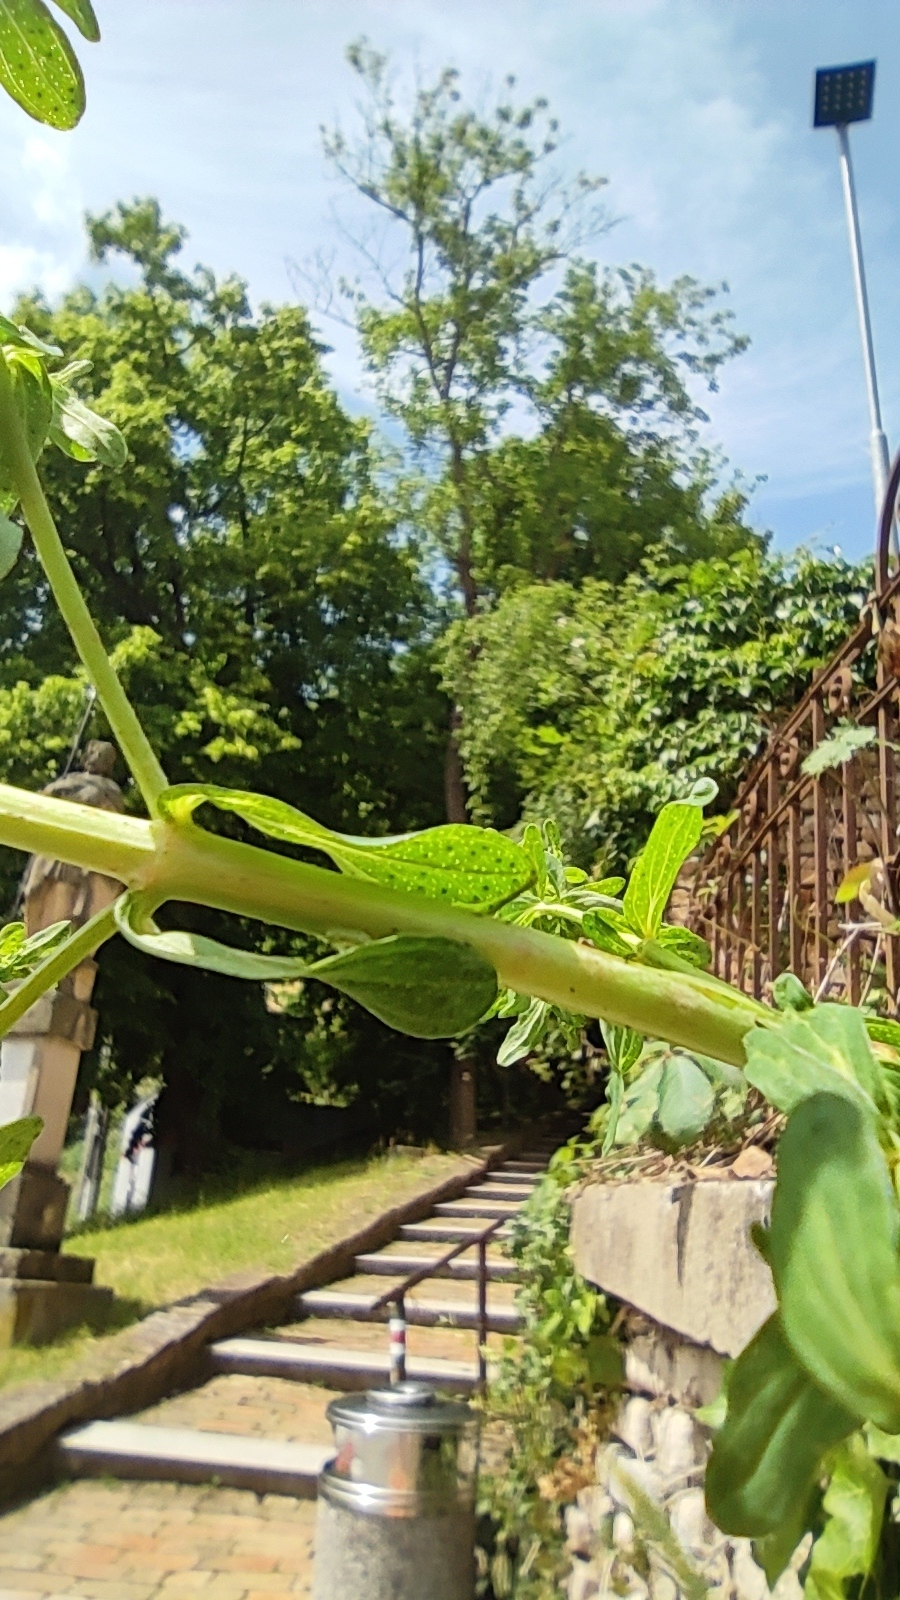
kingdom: Plantae
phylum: Tracheophyta
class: Magnoliopsida
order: Malpighiales
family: Hypericaceae
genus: Hypericum
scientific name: Hypericum perforatum
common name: Common st. johnswort
